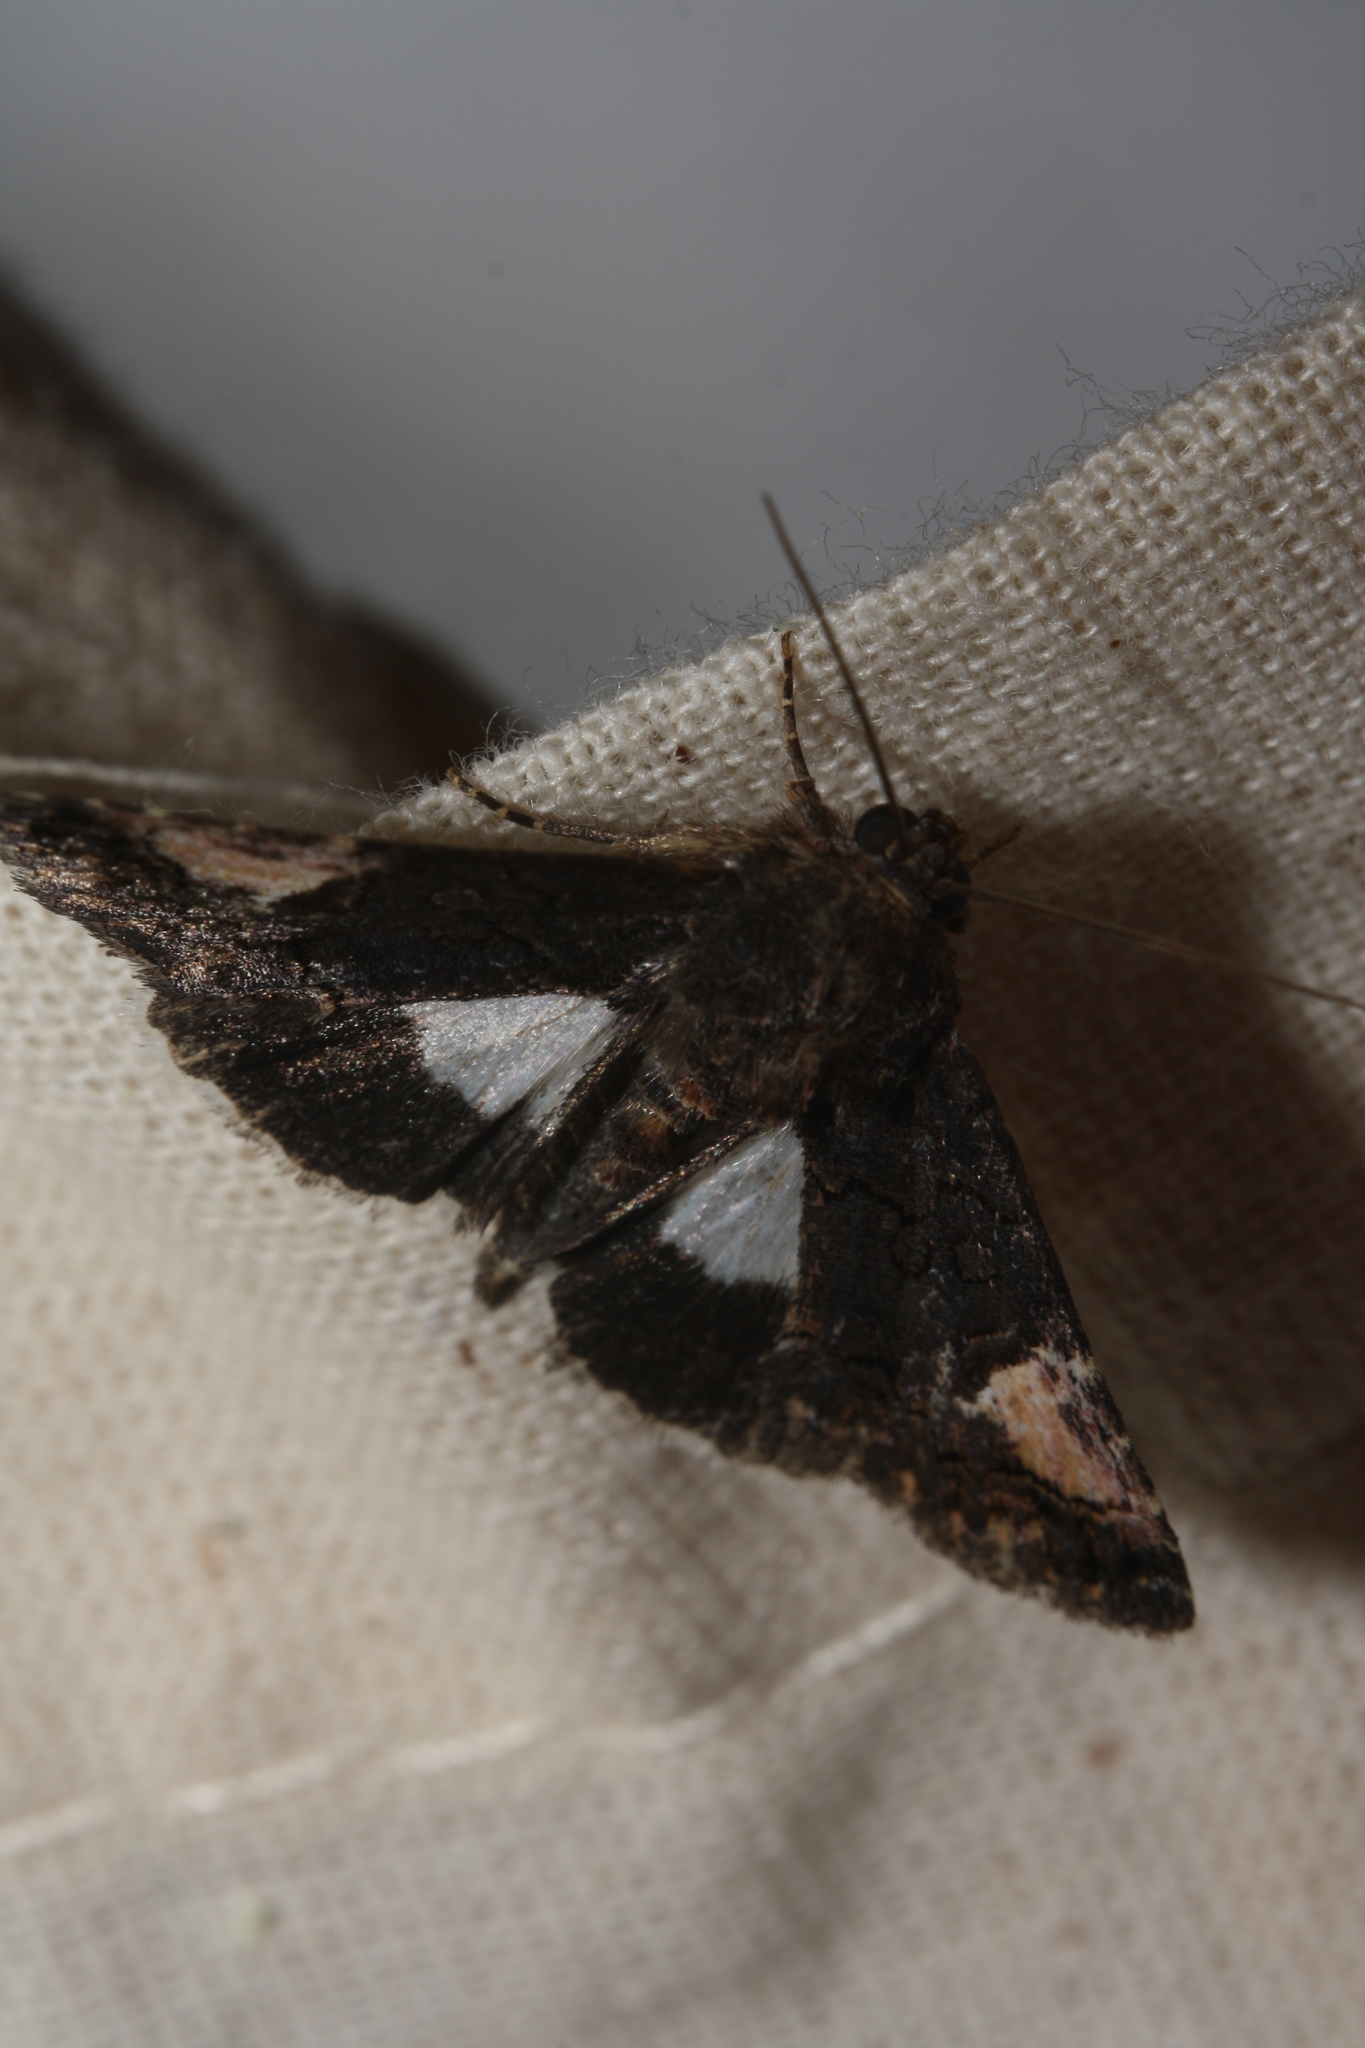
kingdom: Animalia
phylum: Arthropoda
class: Insecta
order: Lepidoptera
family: Noctuidae
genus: Aedia
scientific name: Aedia funesta
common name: The druid
